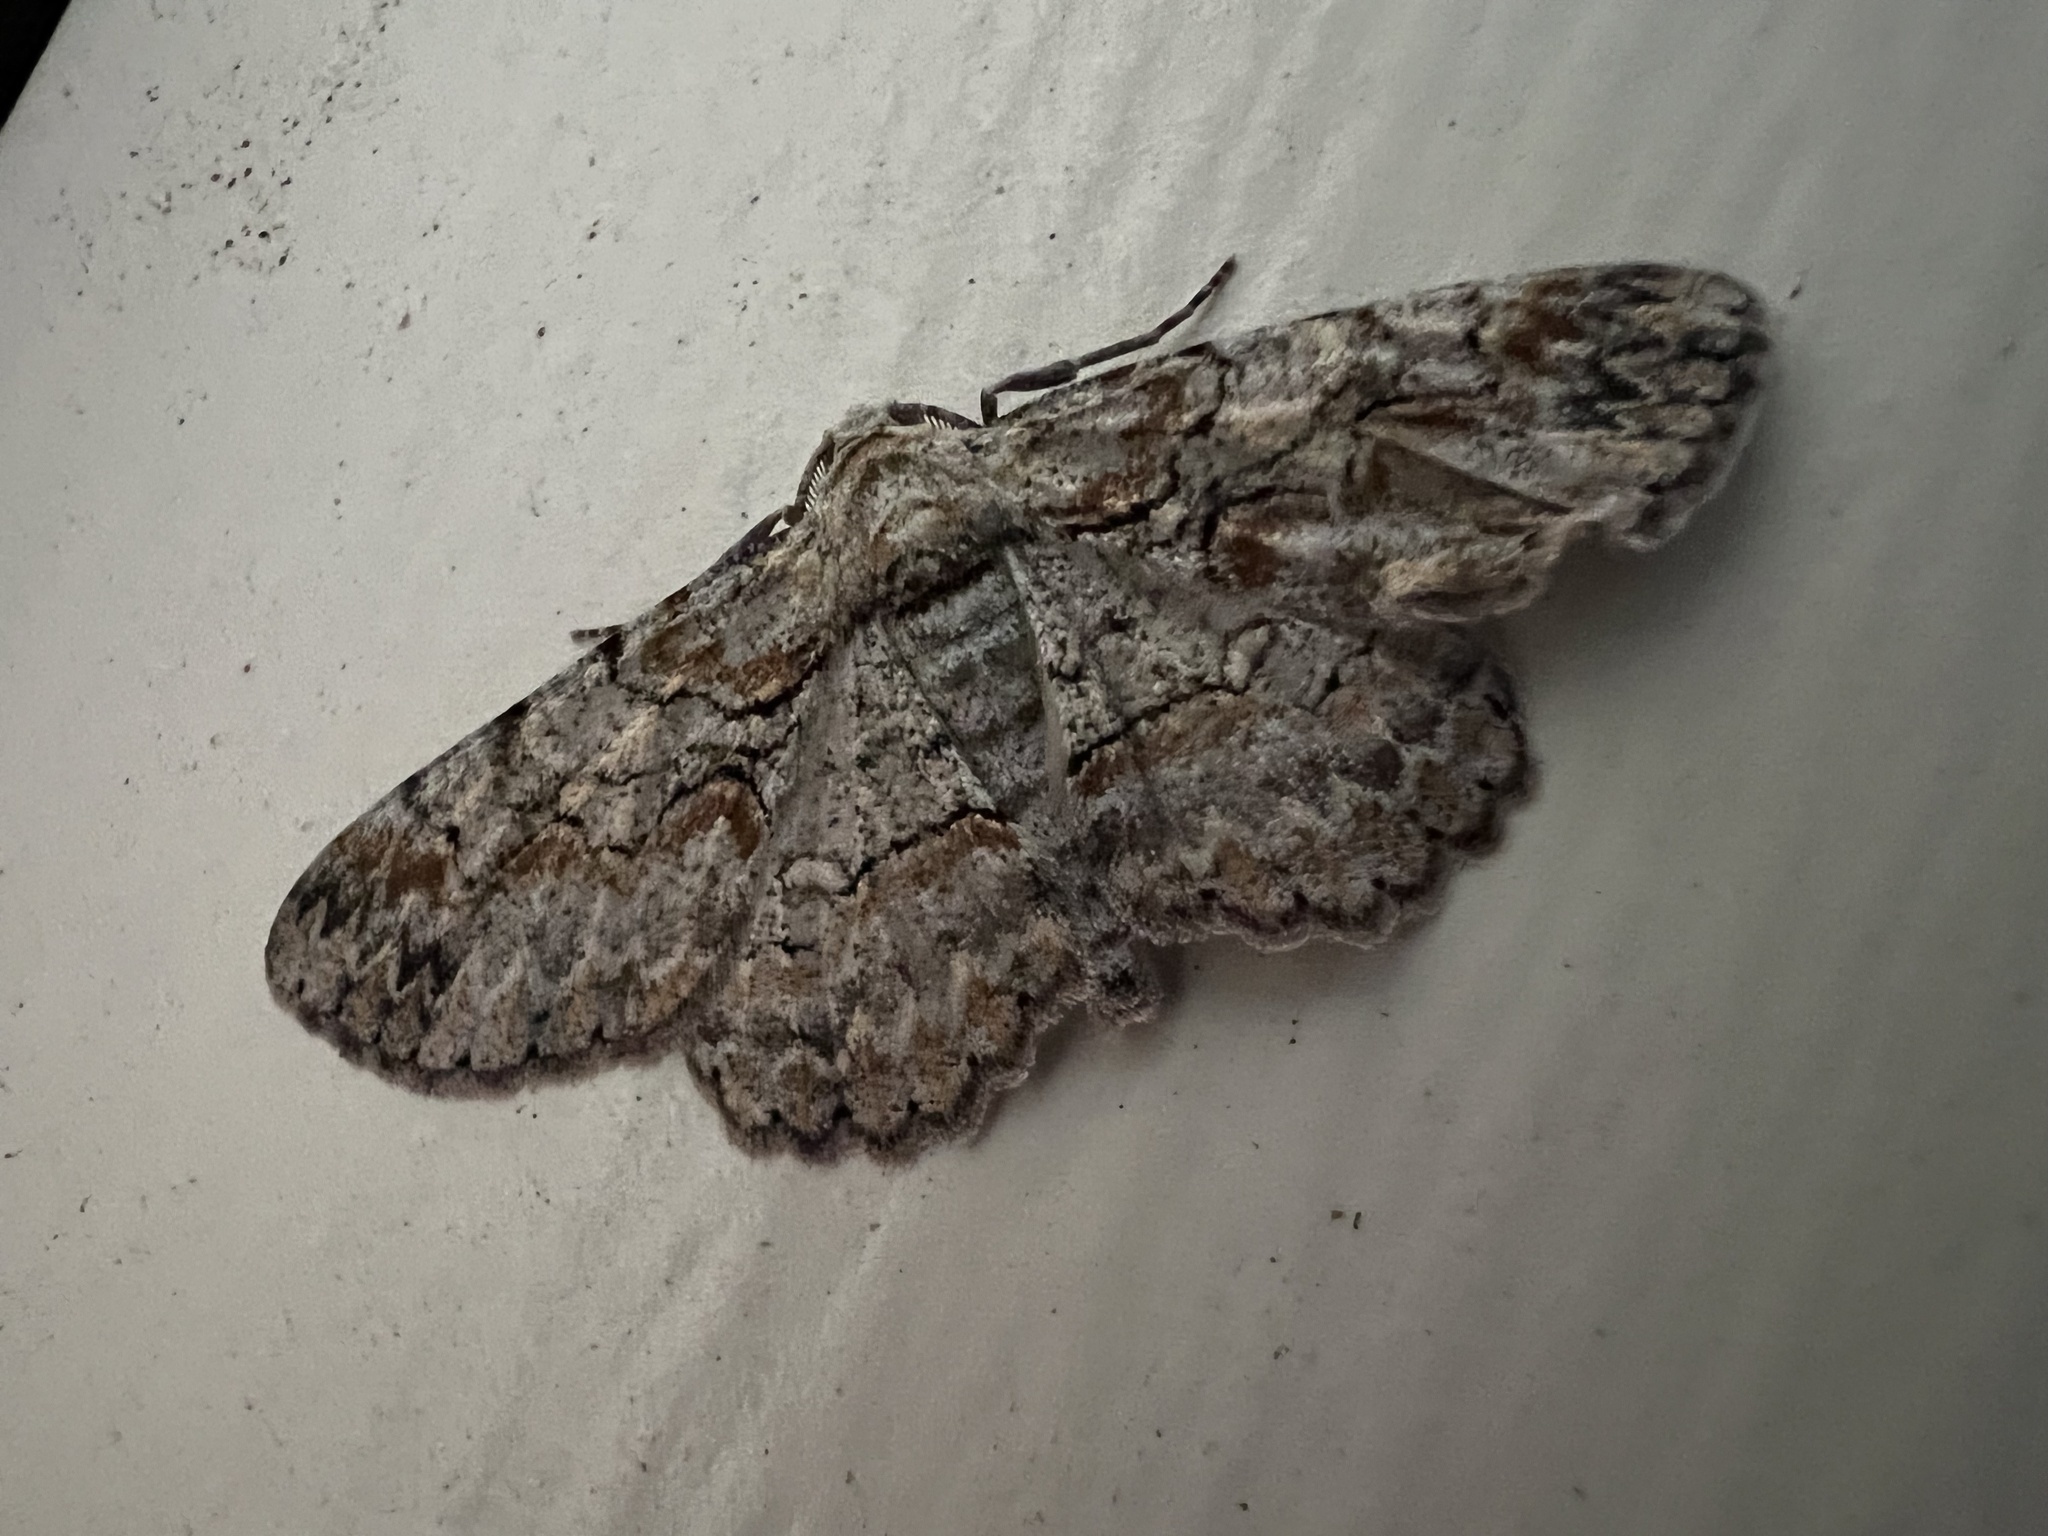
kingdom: Animalia
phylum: Arthropoda
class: Insecta
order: Lepidoptera
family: Geometridae
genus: Iridopsis
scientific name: Iridopsis defectaria
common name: Brown-shaded gray
